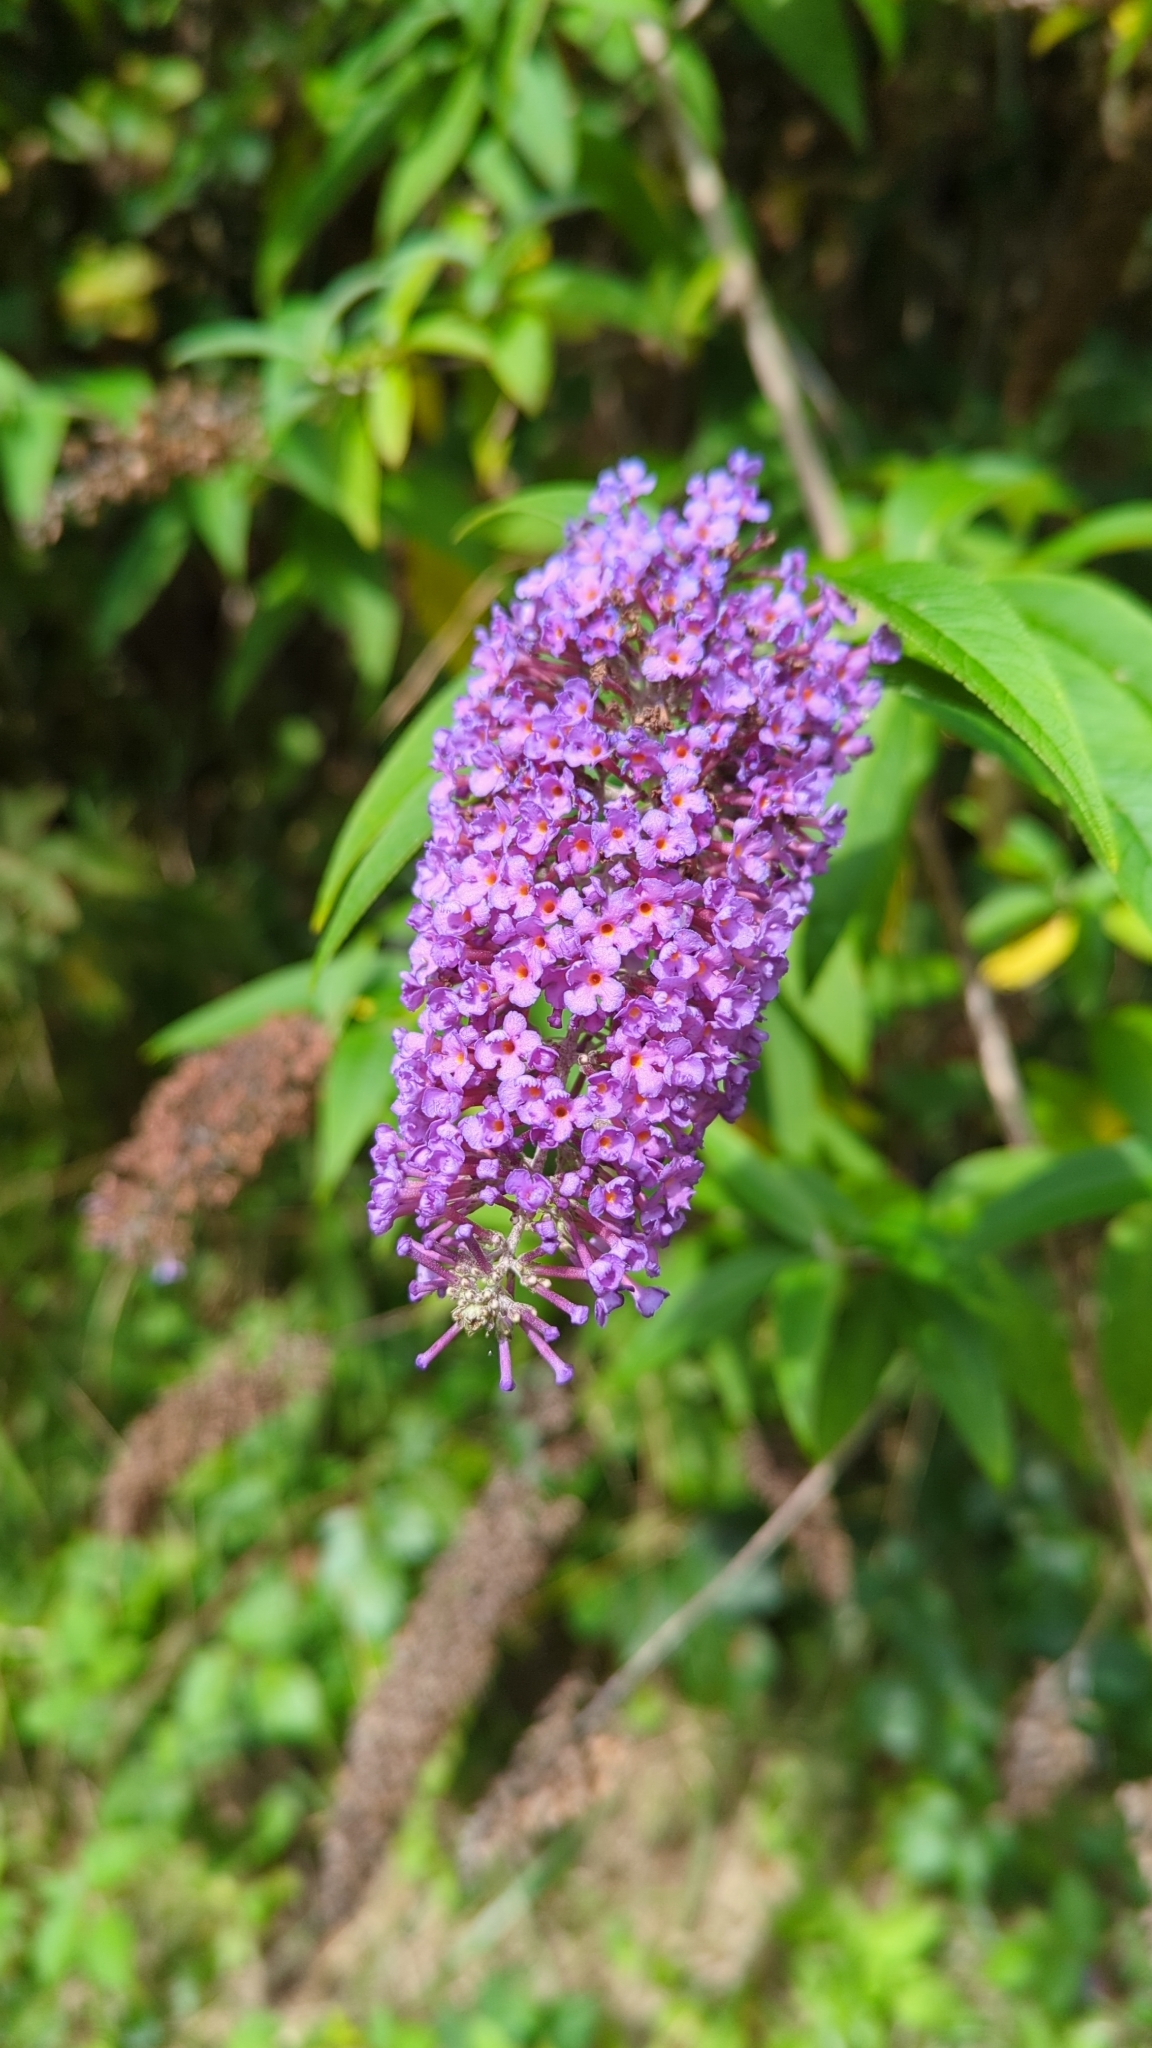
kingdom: Plantae
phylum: Tracheophyta
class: Magnoliopsida
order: Lamiales
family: Scrophulariaceae
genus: Buddleja
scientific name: Buddleja davidii
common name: Butterfly-bush
